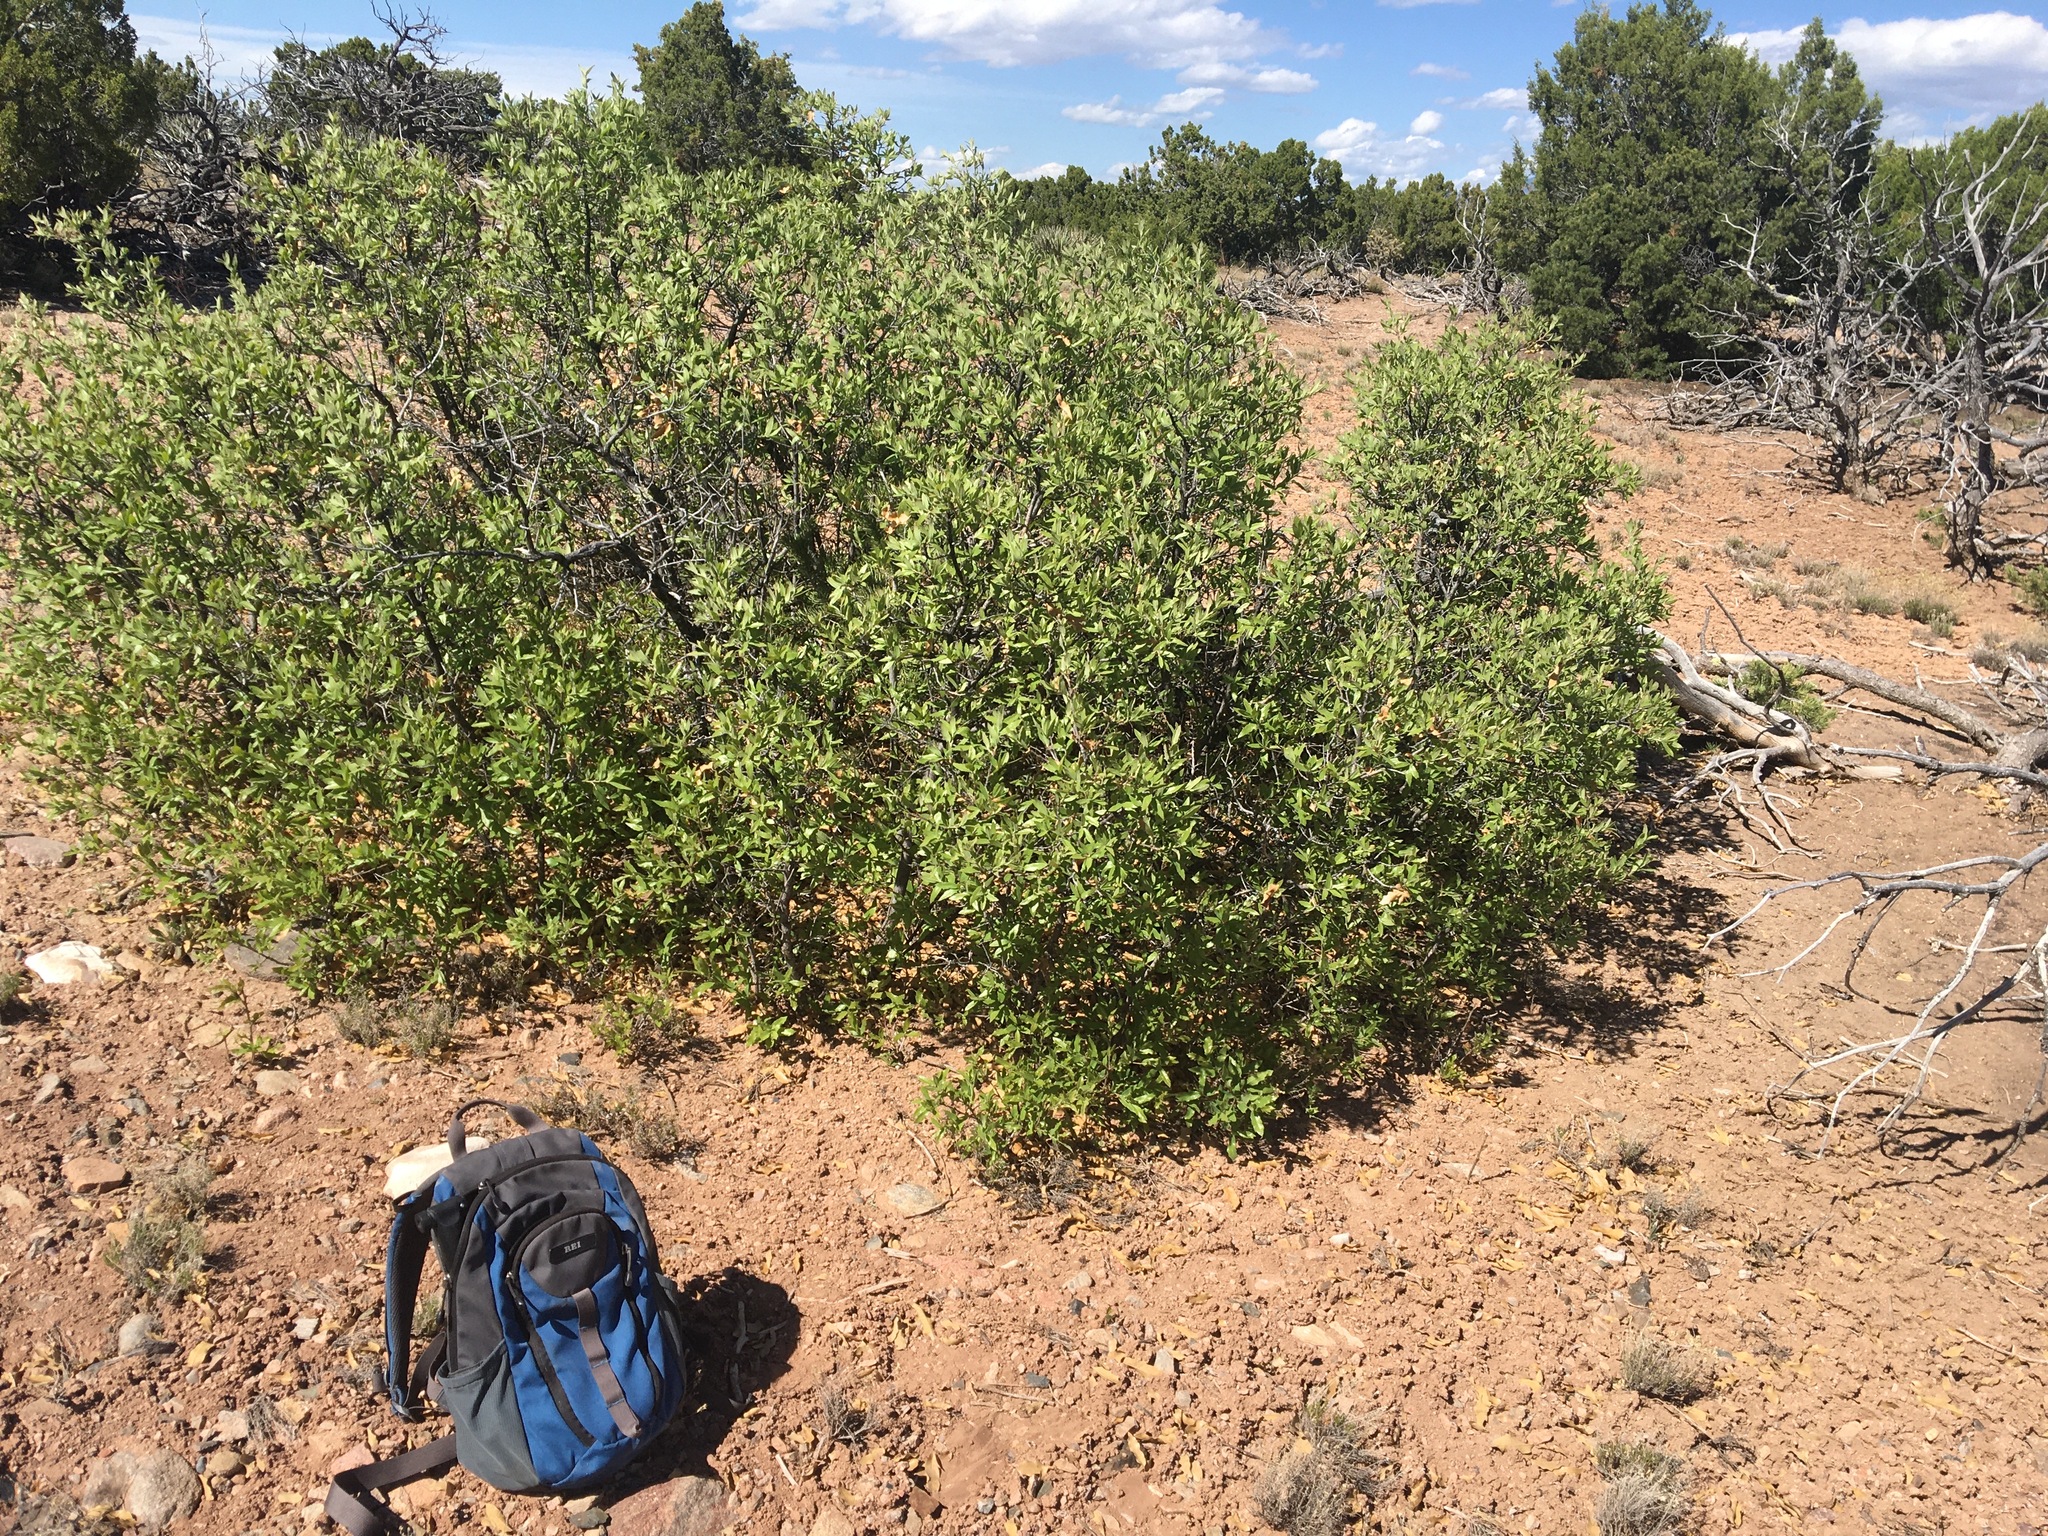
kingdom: Plantae
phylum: Tracheophyta
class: Magnoliopsida
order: Fagales
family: Fagaceae
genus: Quercus
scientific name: Quercus undulata
